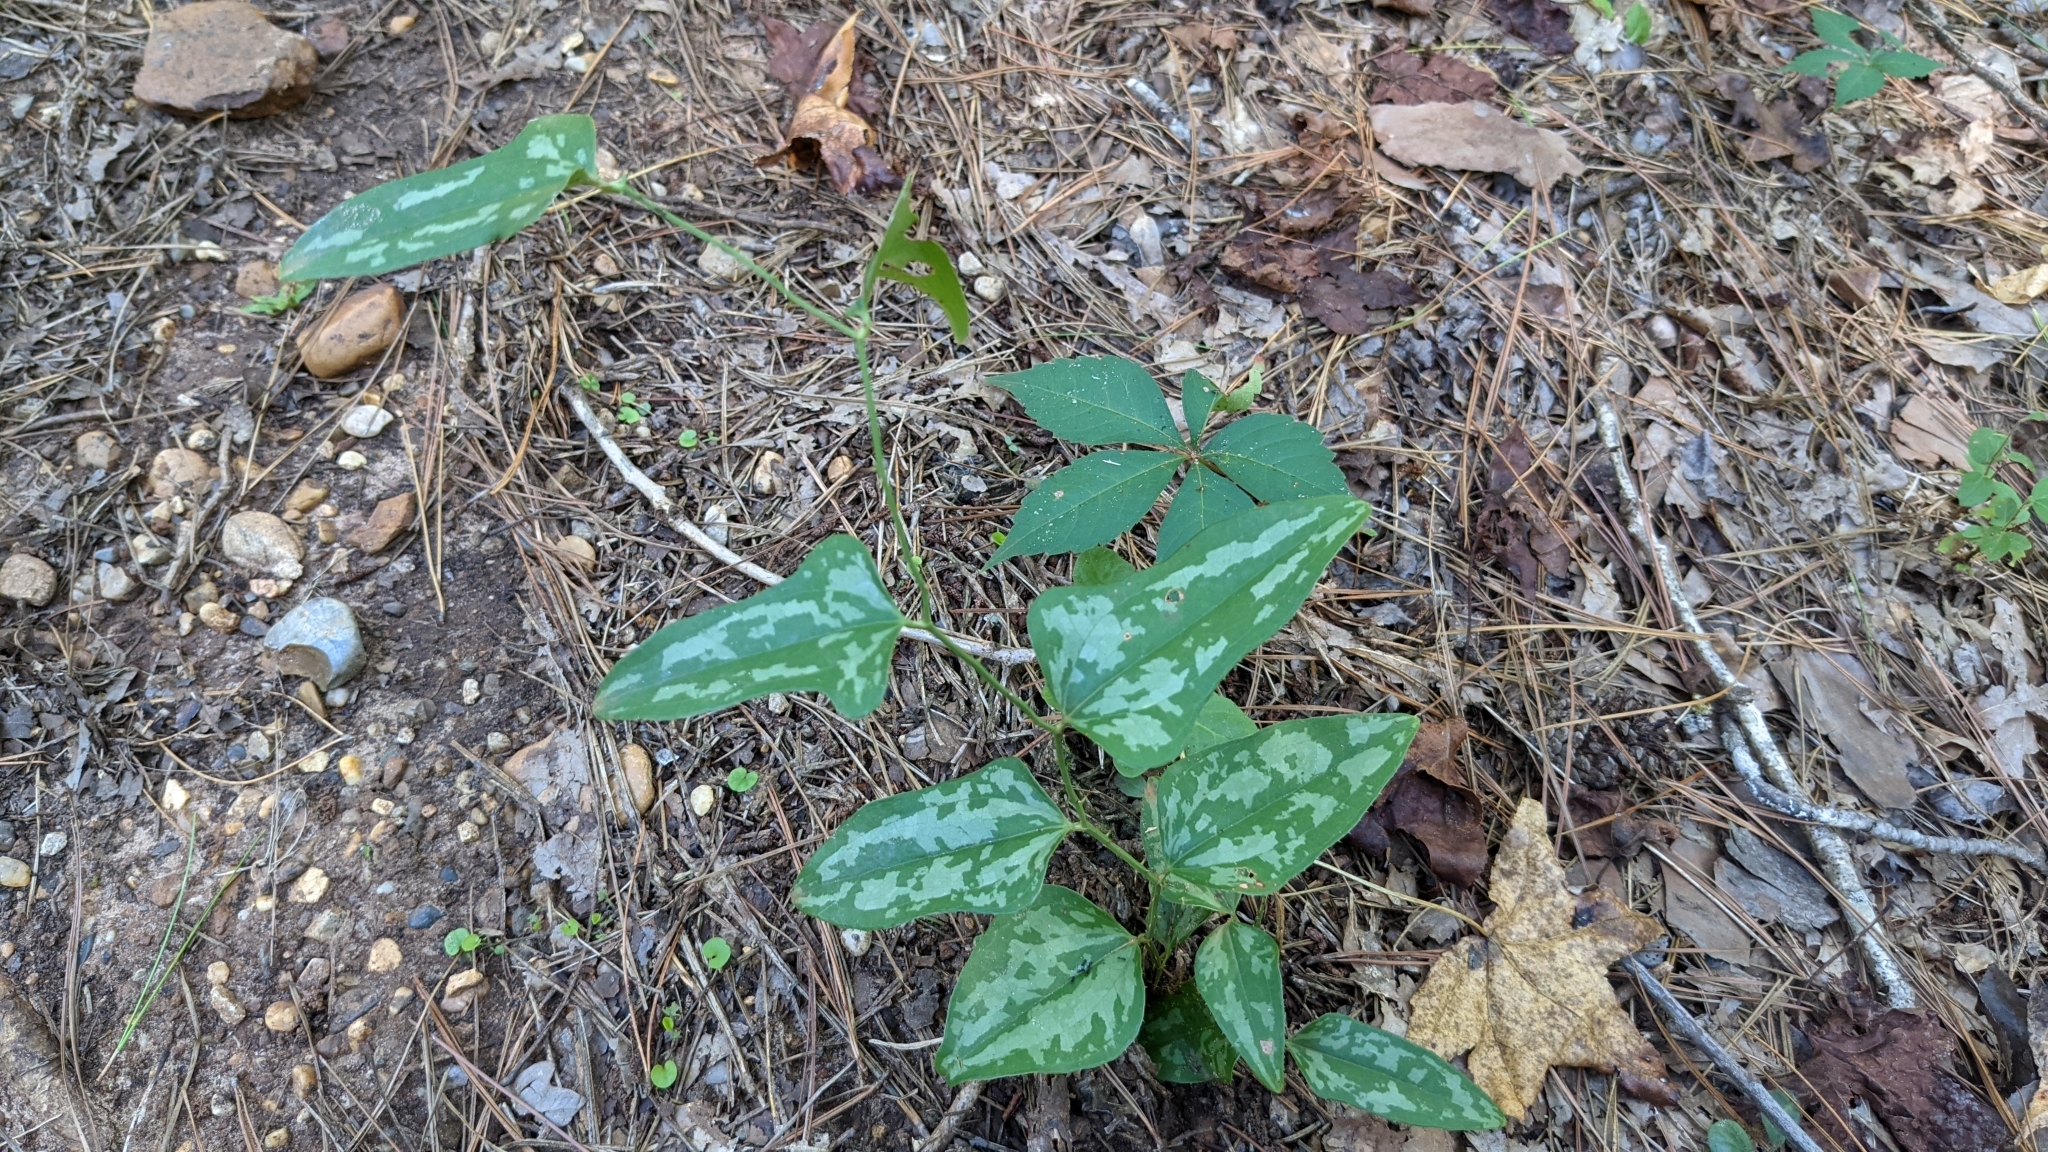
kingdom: Plantae
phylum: Tracheophyta
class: Liliopsida
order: Liliales
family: Smilacaceae
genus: Smilax
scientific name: Smilax bona-nox
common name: Catbrier
